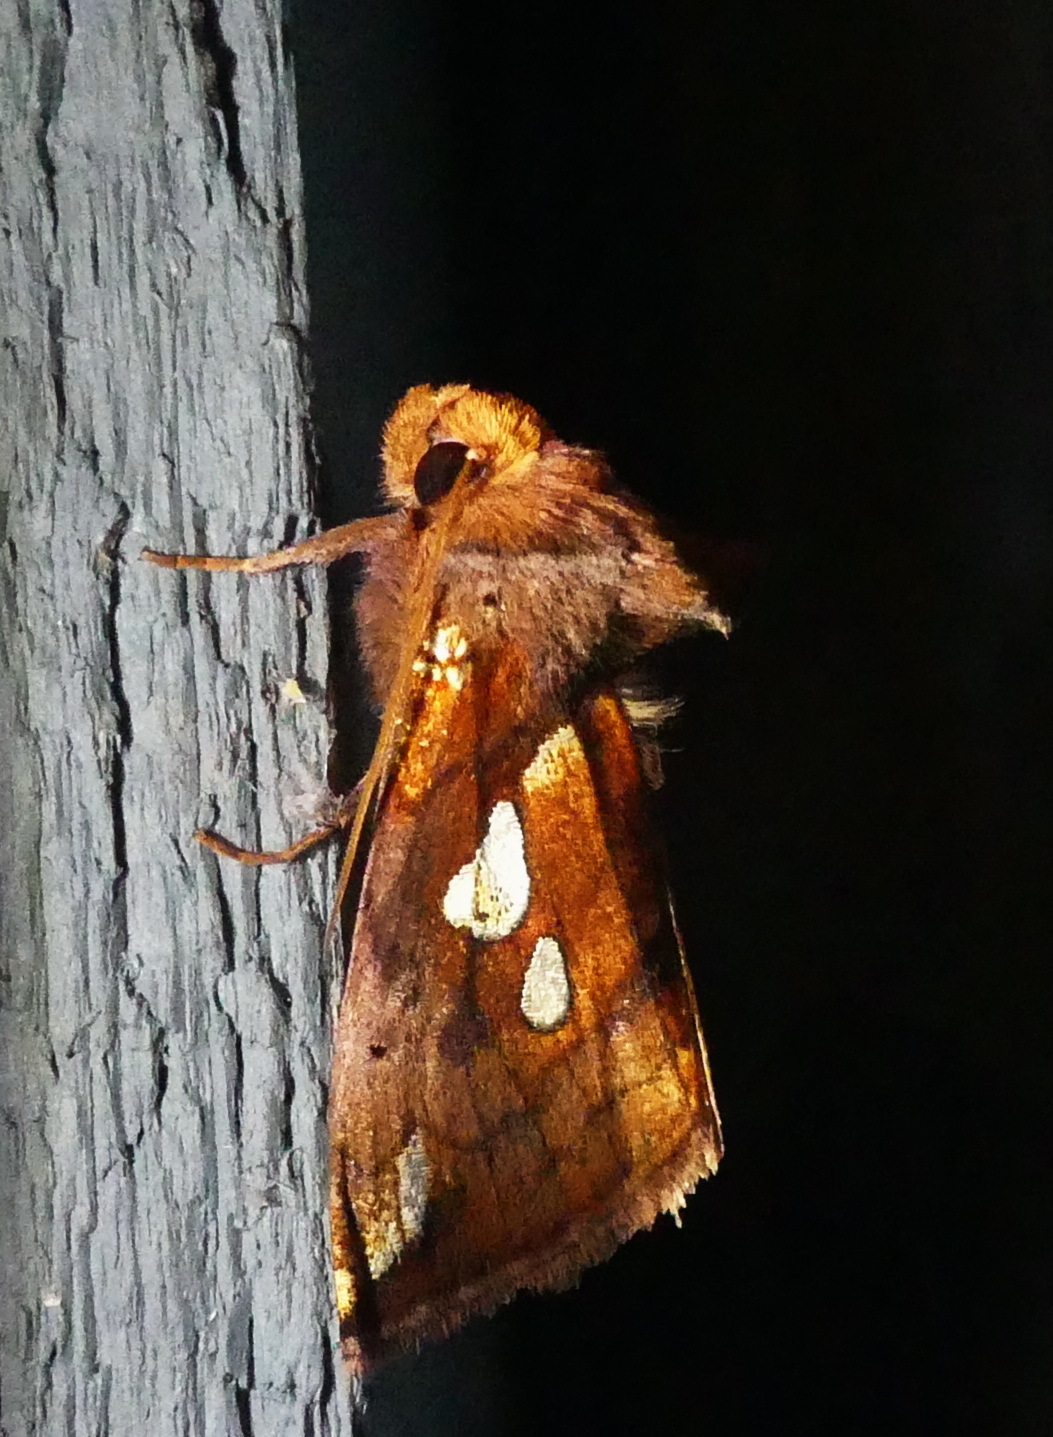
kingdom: Animalia
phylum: Arthropoda
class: Insecta
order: Lepidoptera
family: Noctuidae
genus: Plusia
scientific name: Plusia magnimacula
